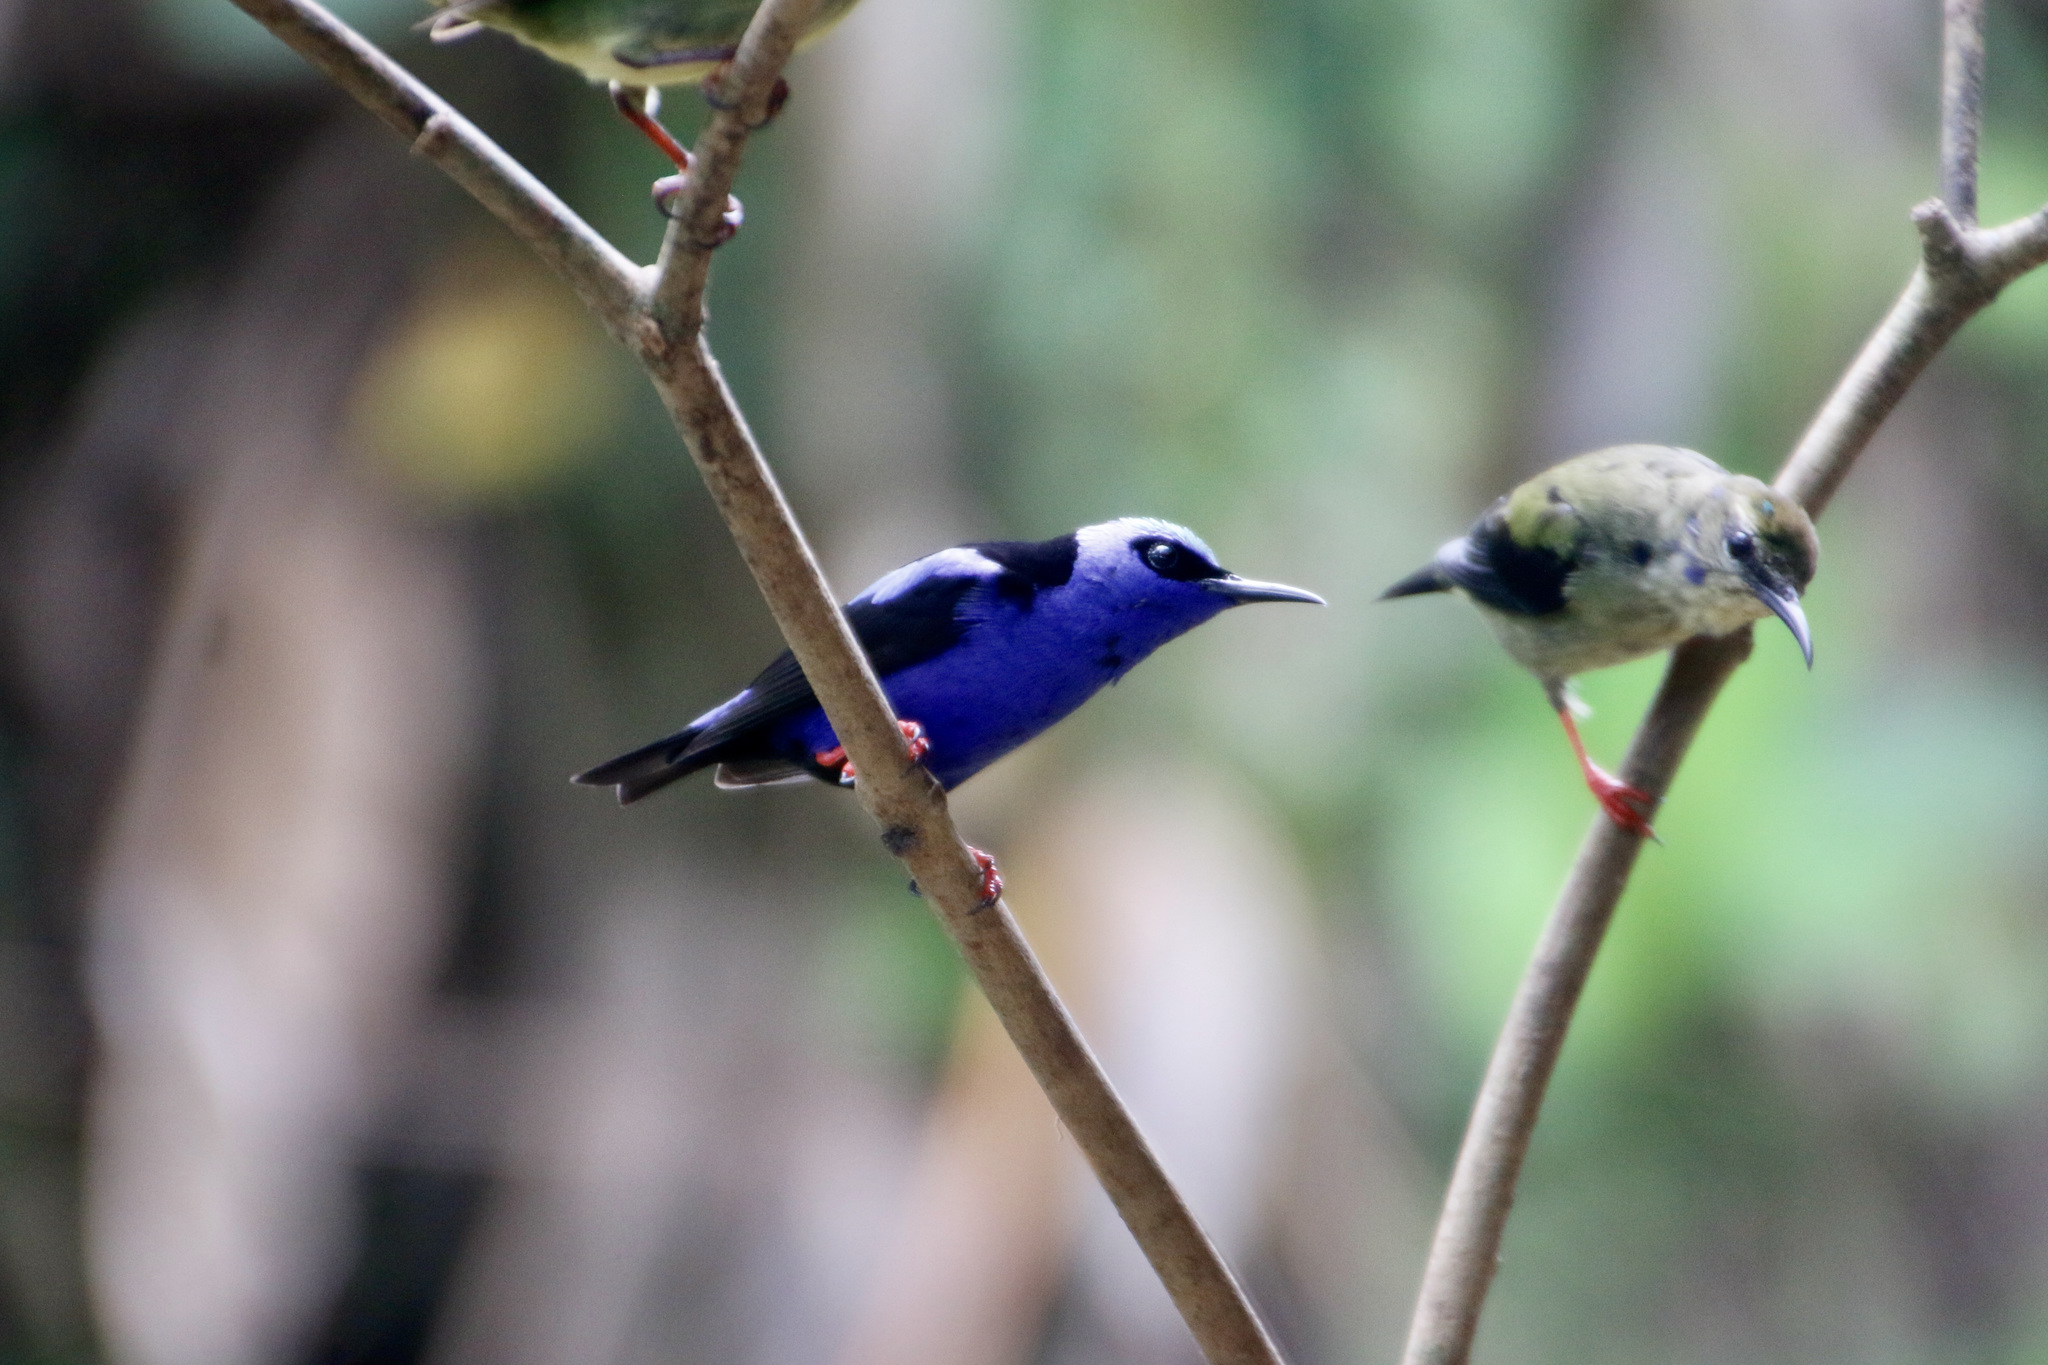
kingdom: Animalia
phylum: Chordata
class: Aves
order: Passeriformes
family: Thraupidae
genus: Cyanerpes
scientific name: Cyanerpes cyaneus
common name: Red-legged honeycreeper
